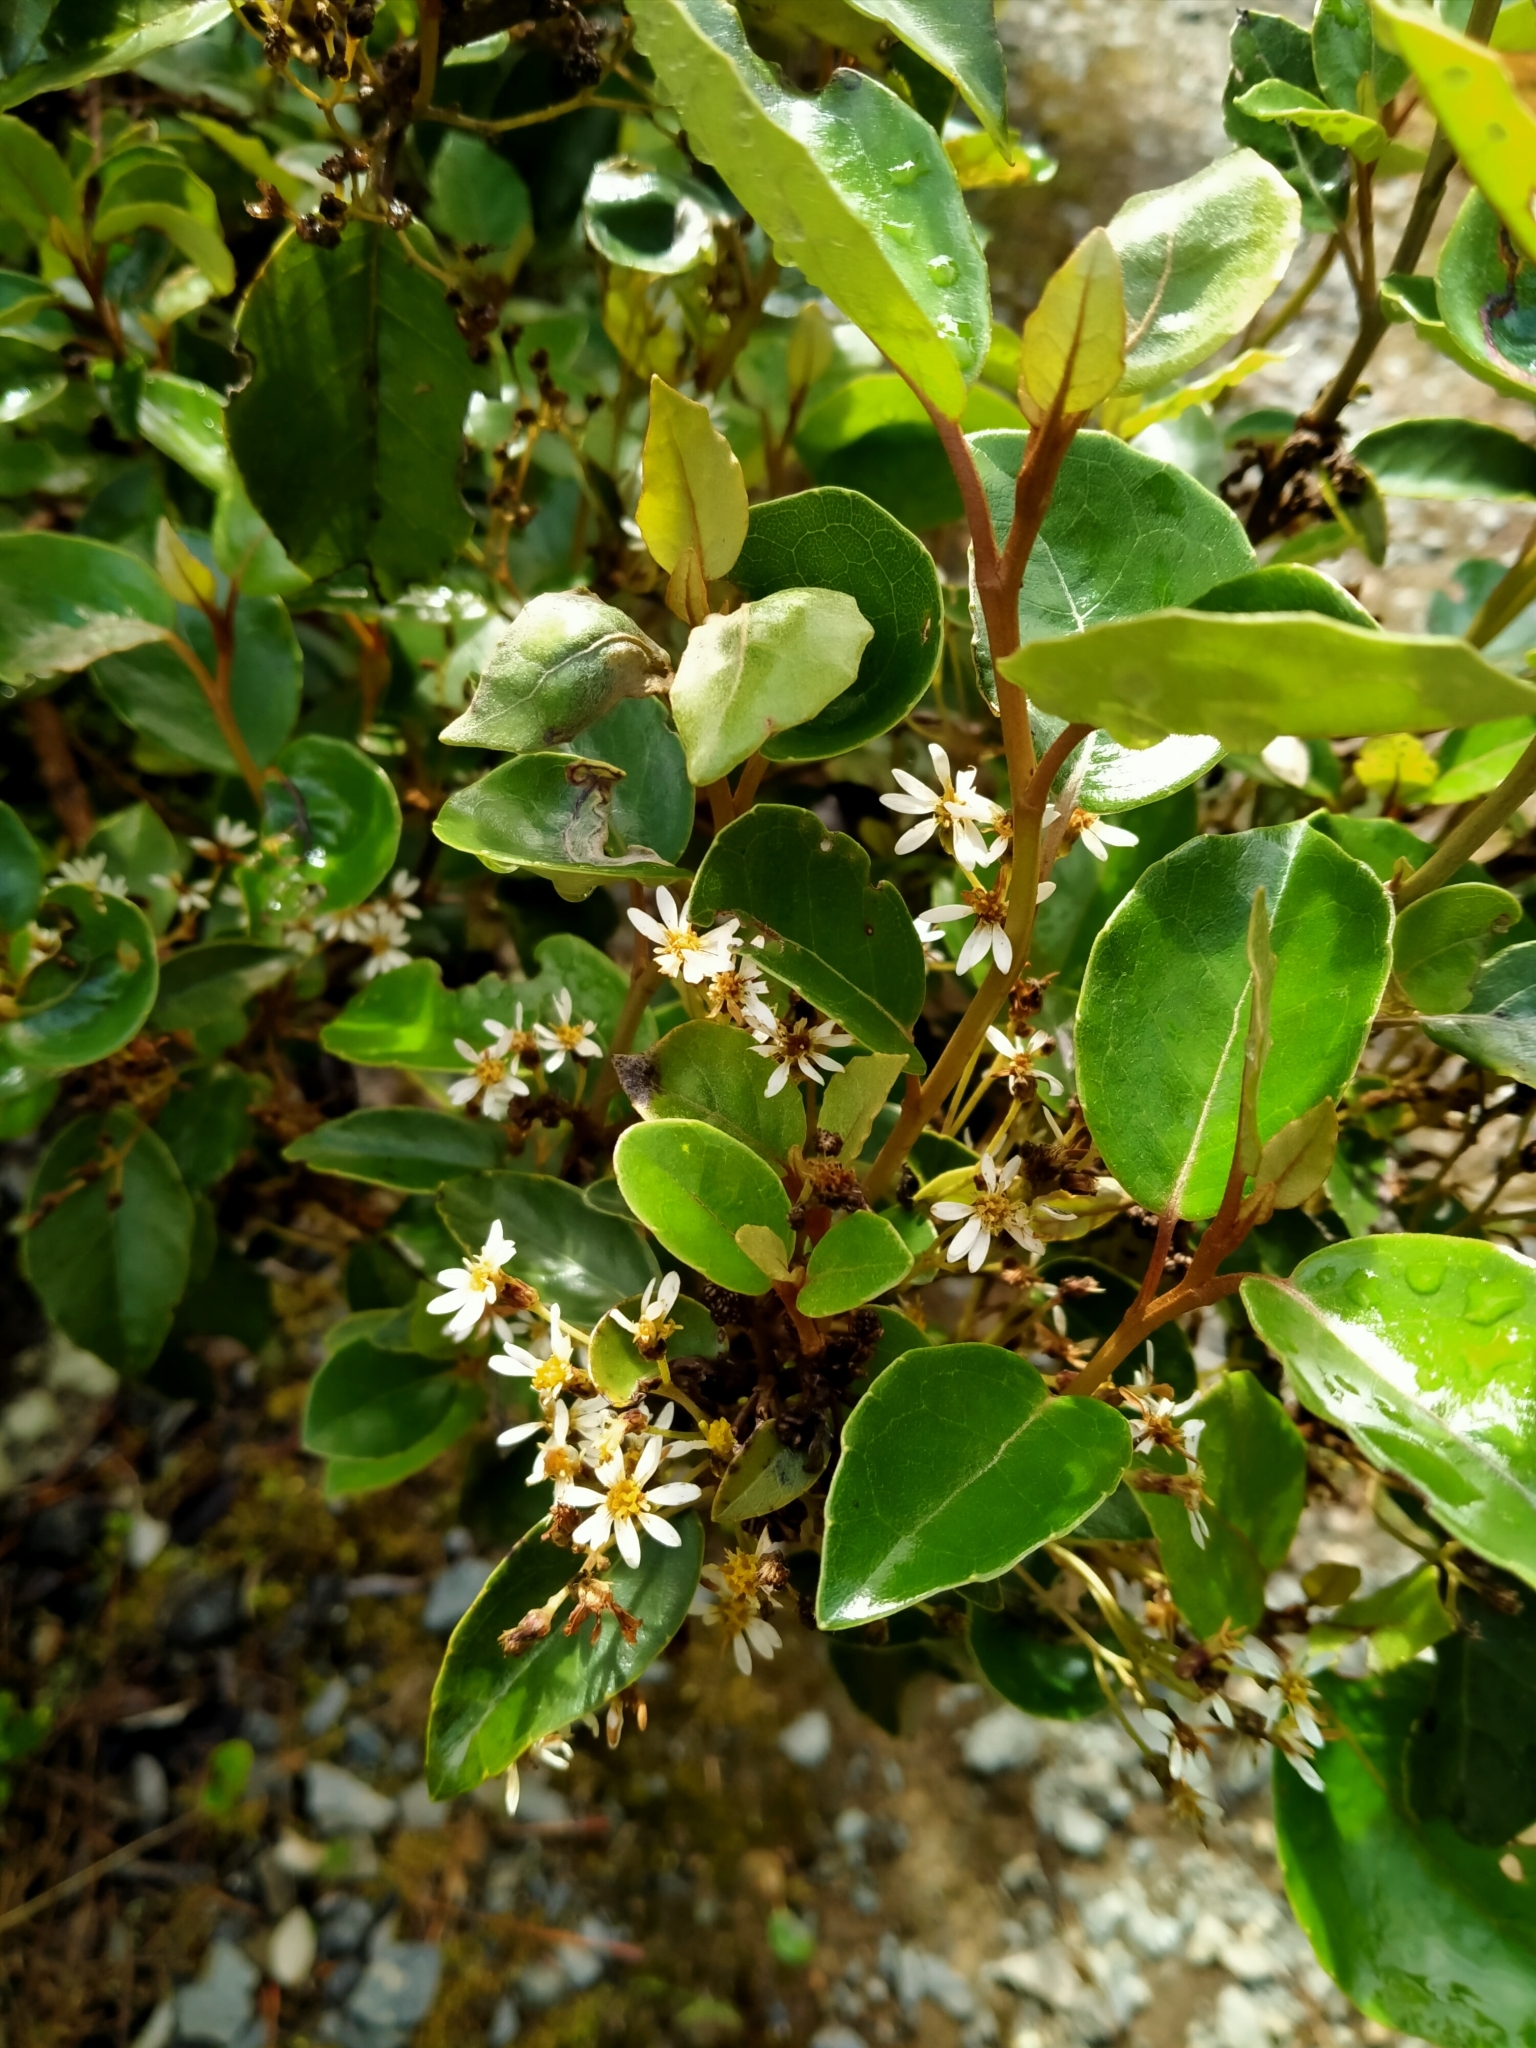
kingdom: Plantae
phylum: Tracheophyta
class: Magnoliopsida
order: Asterales
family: Asteraceae
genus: Olearia
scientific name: Olearia arborescens
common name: Glossy tree daisy
